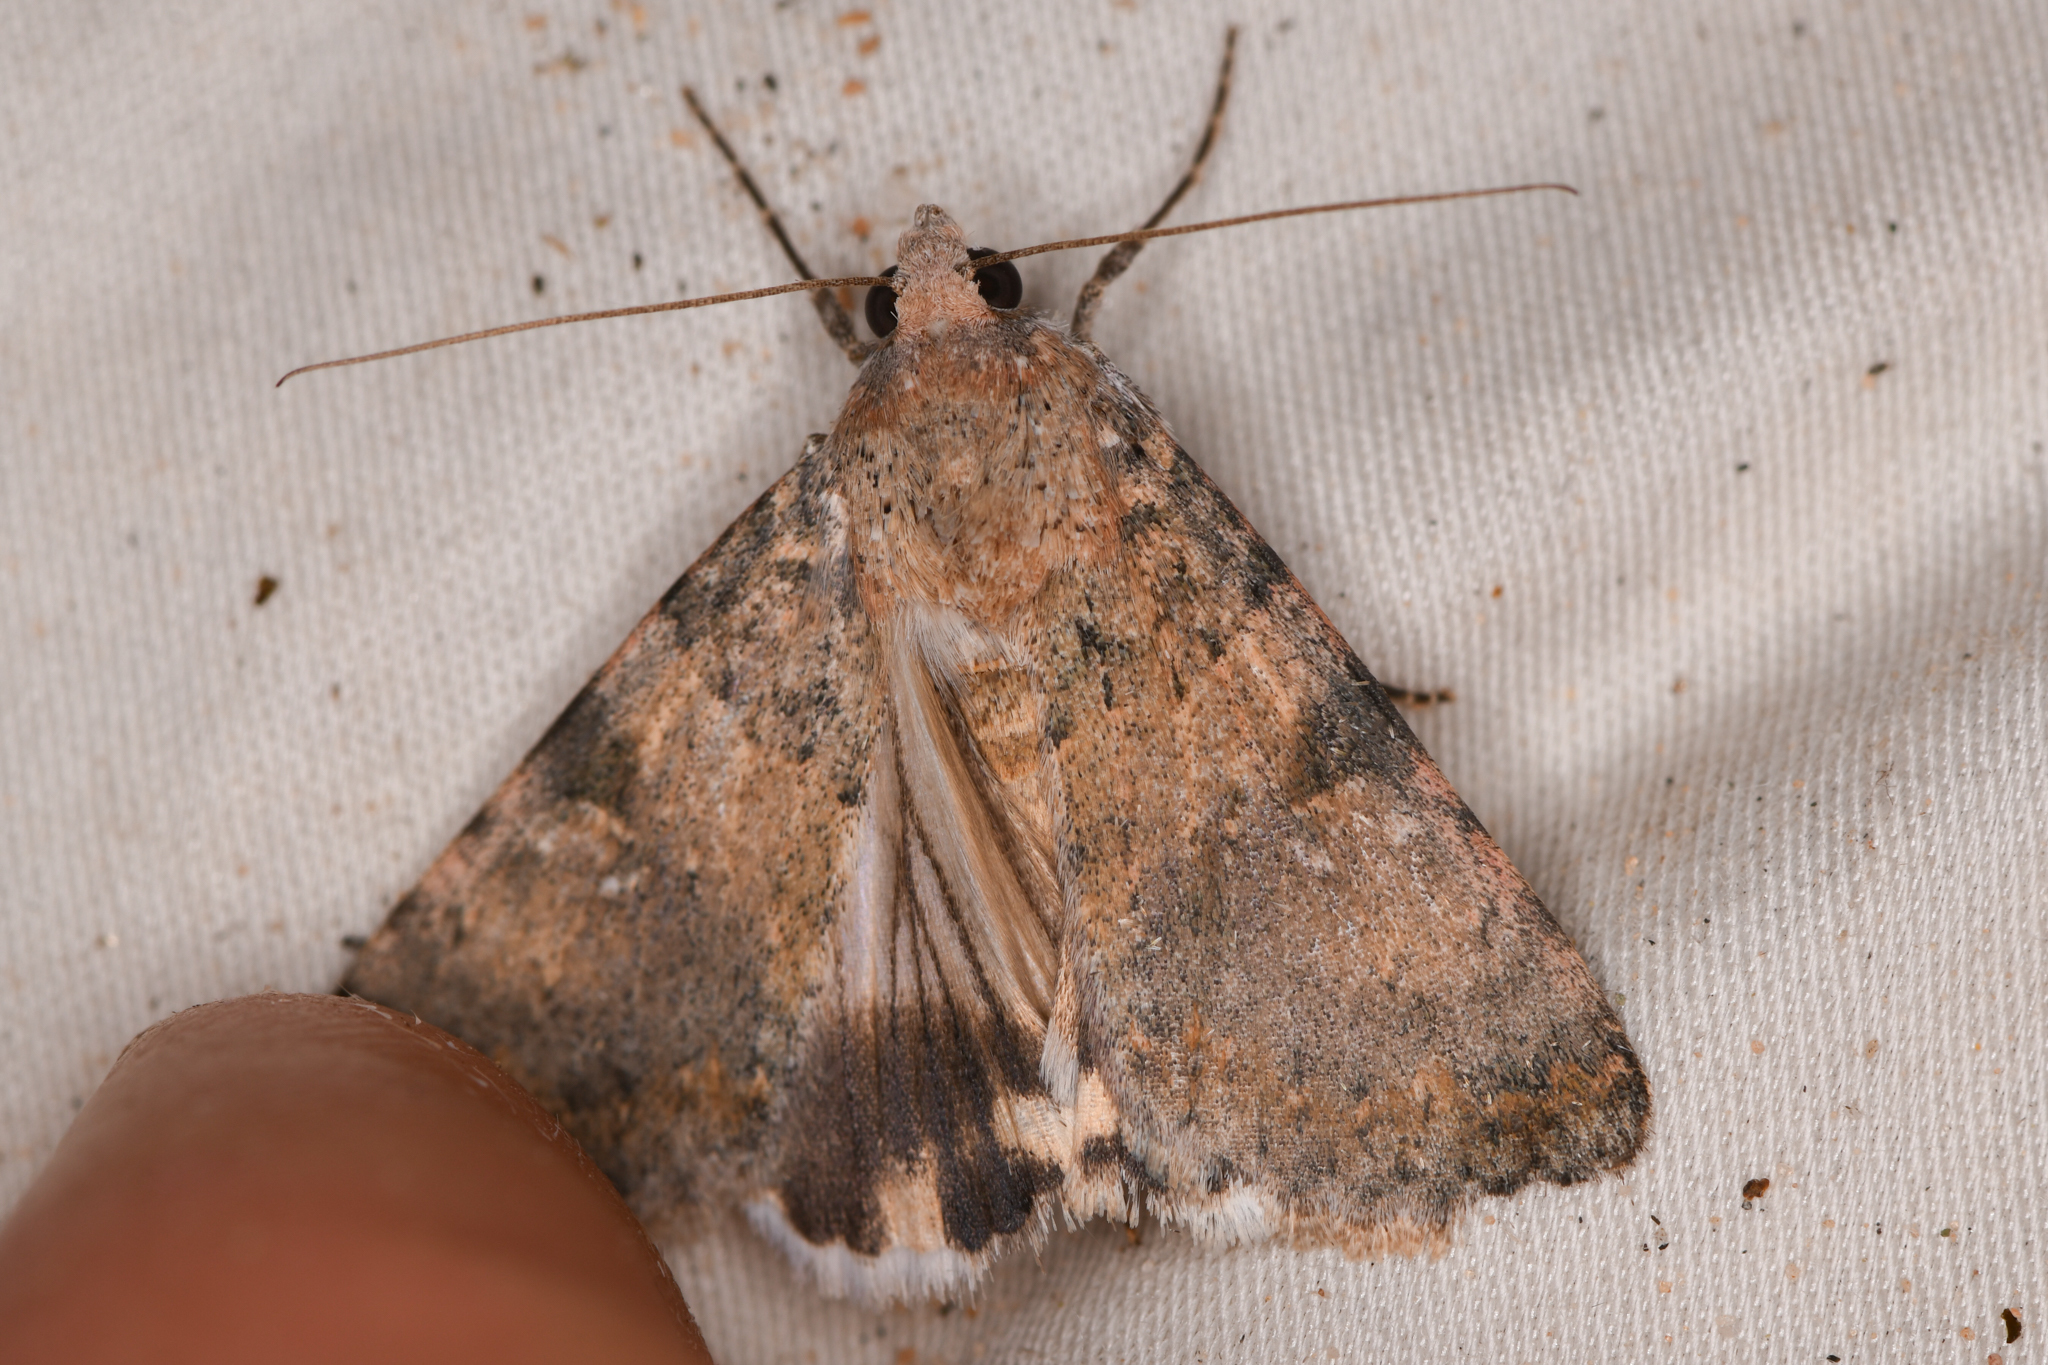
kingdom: Animalia
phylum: Arthropoda
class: Insecta
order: Lepidoptera
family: Erebidae
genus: Melipotis
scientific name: Melipotis jucunda
